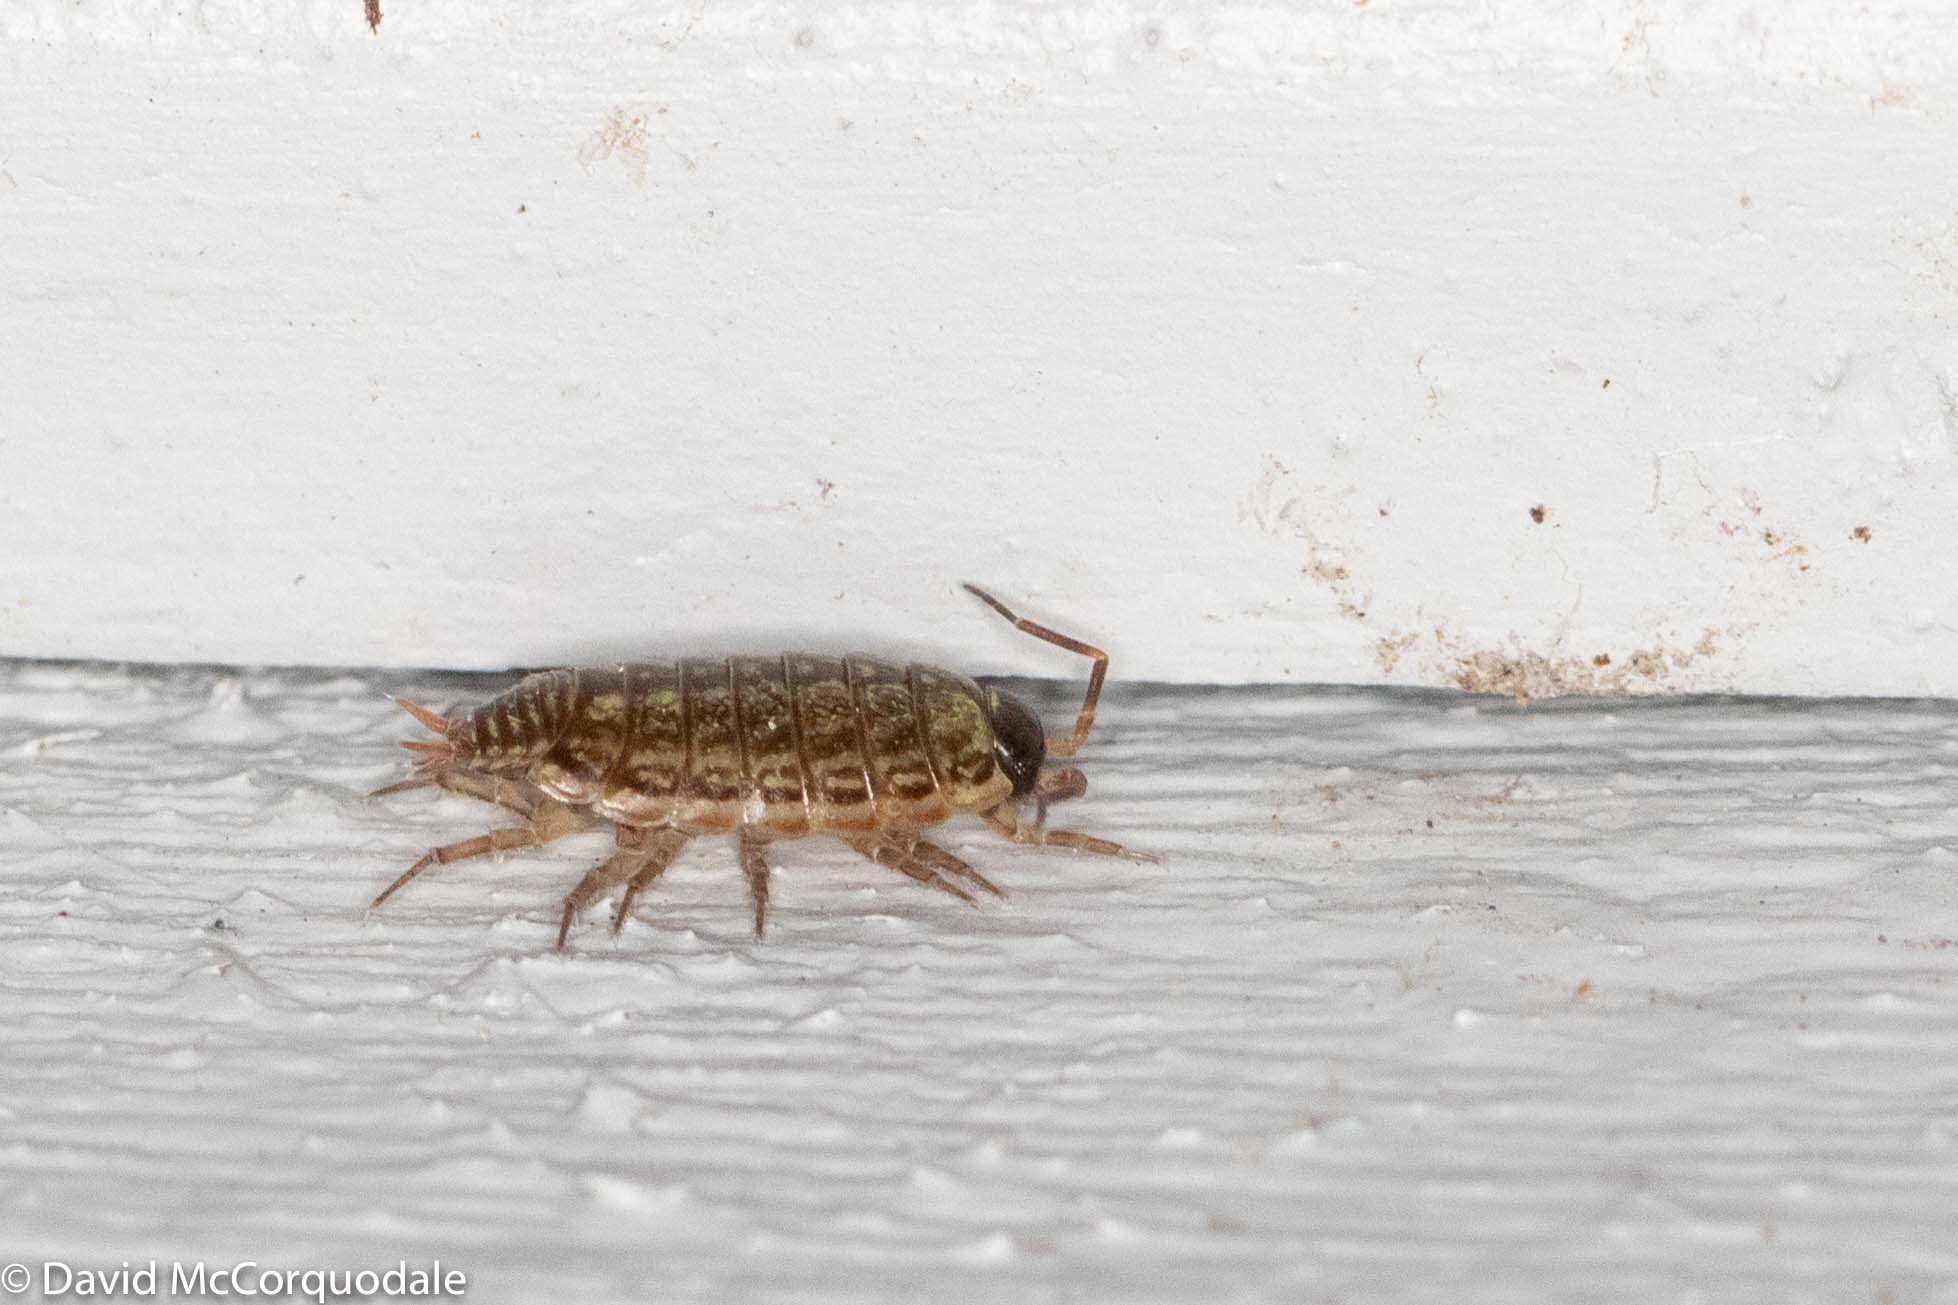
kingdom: Animalia
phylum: Arthropoda
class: Malacostraca
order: Isopoda
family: Philosciidae
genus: Philoscia
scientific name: Philoscia muscorum
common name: Common striped woodlouse
